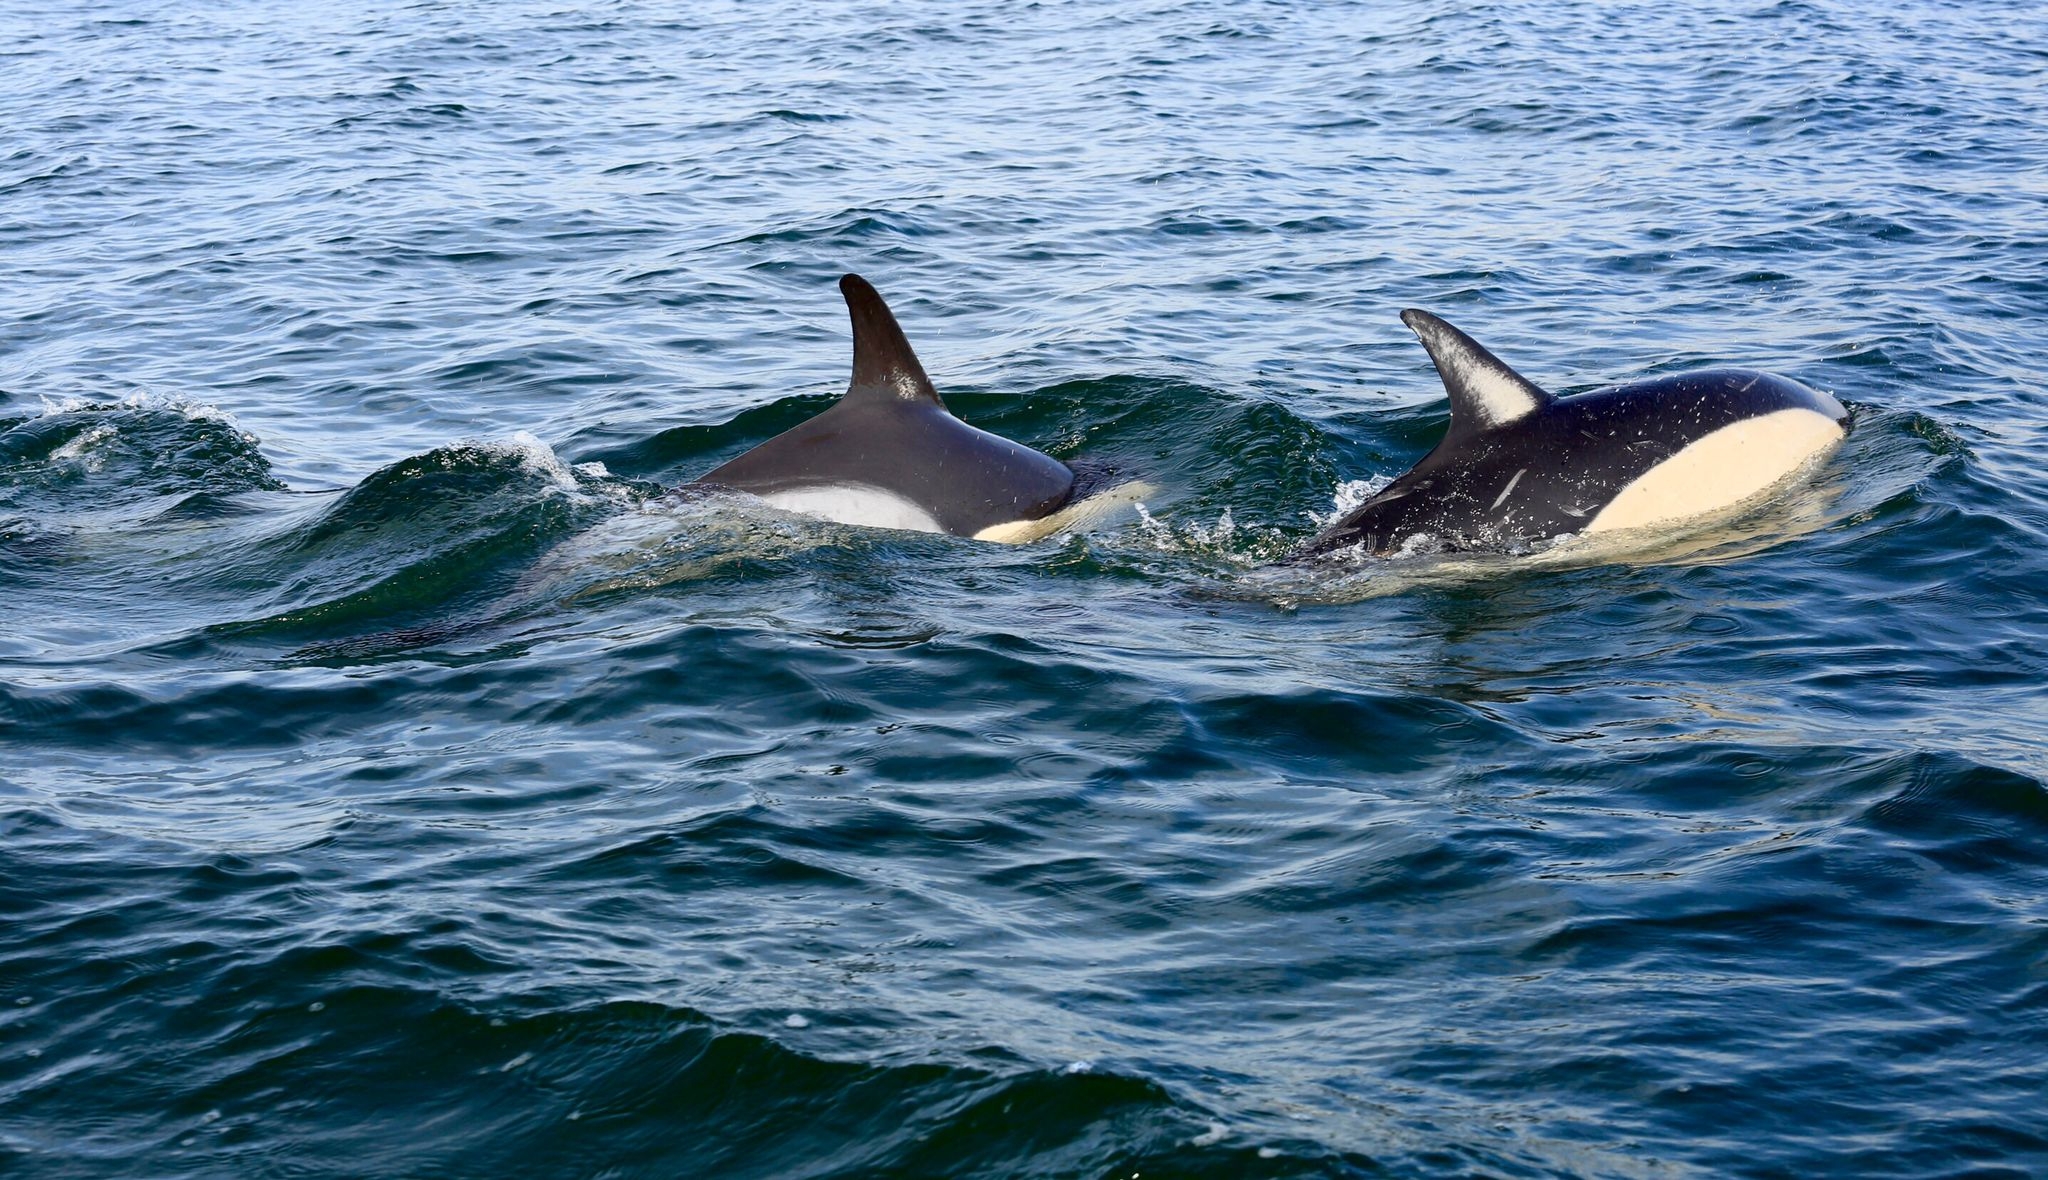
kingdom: Animalia
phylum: Chordata
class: Mammalia
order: Cetacea
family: Delphinidae
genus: Delphinus
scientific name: Delphinus delphis
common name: Common dolphin
